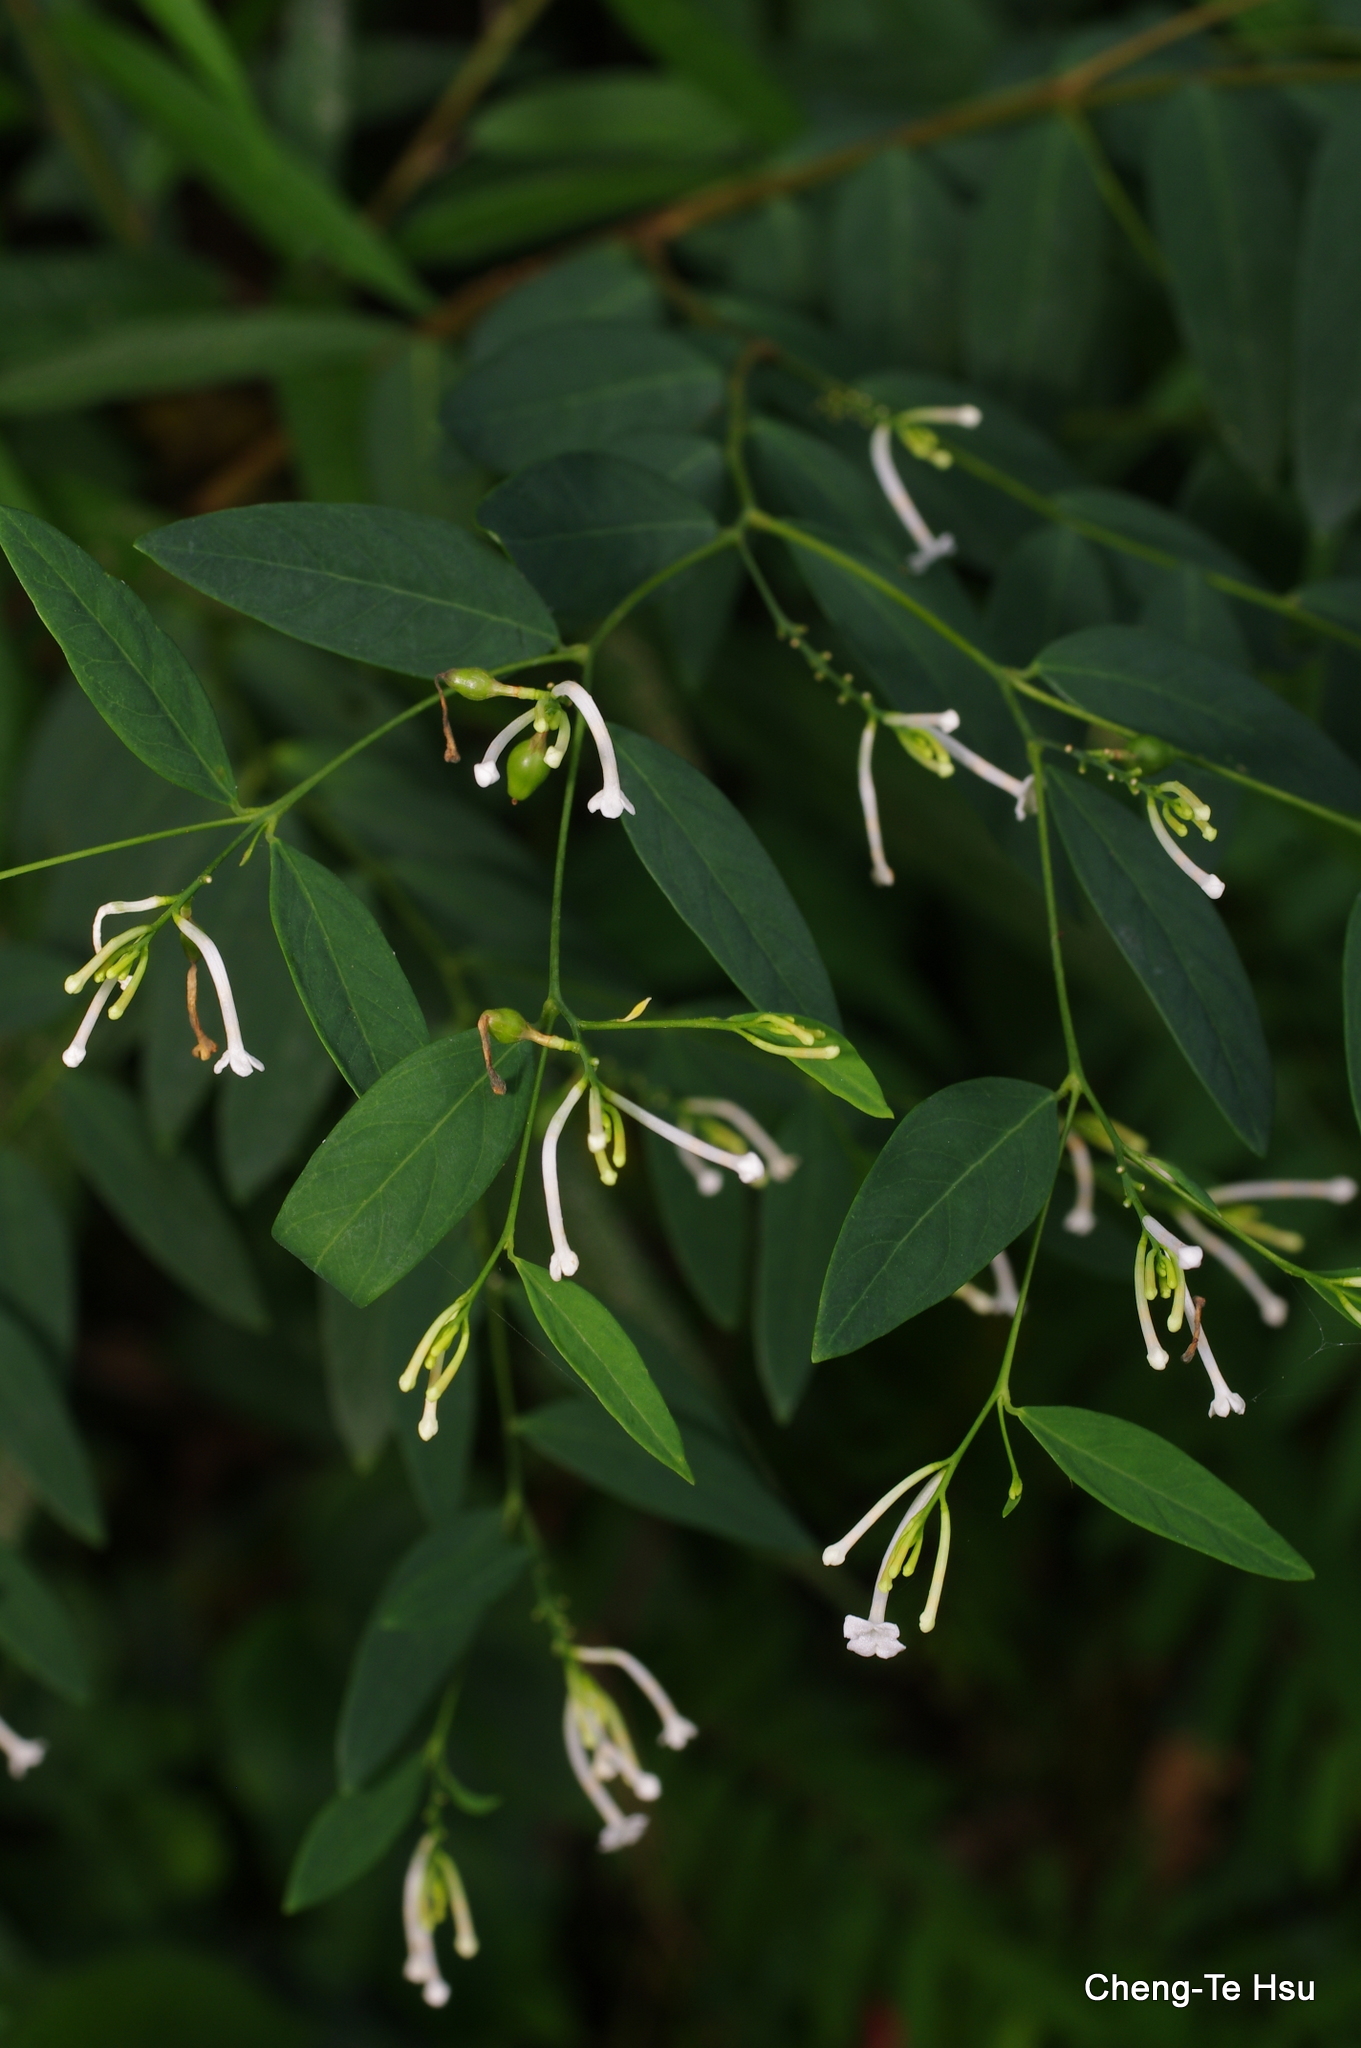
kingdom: Plantae
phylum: Tracheophyta
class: Magnoliopsida
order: Malvales
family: Thymelaeaceae
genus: Wikstroemia
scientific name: Wikstroemia mononectaria
